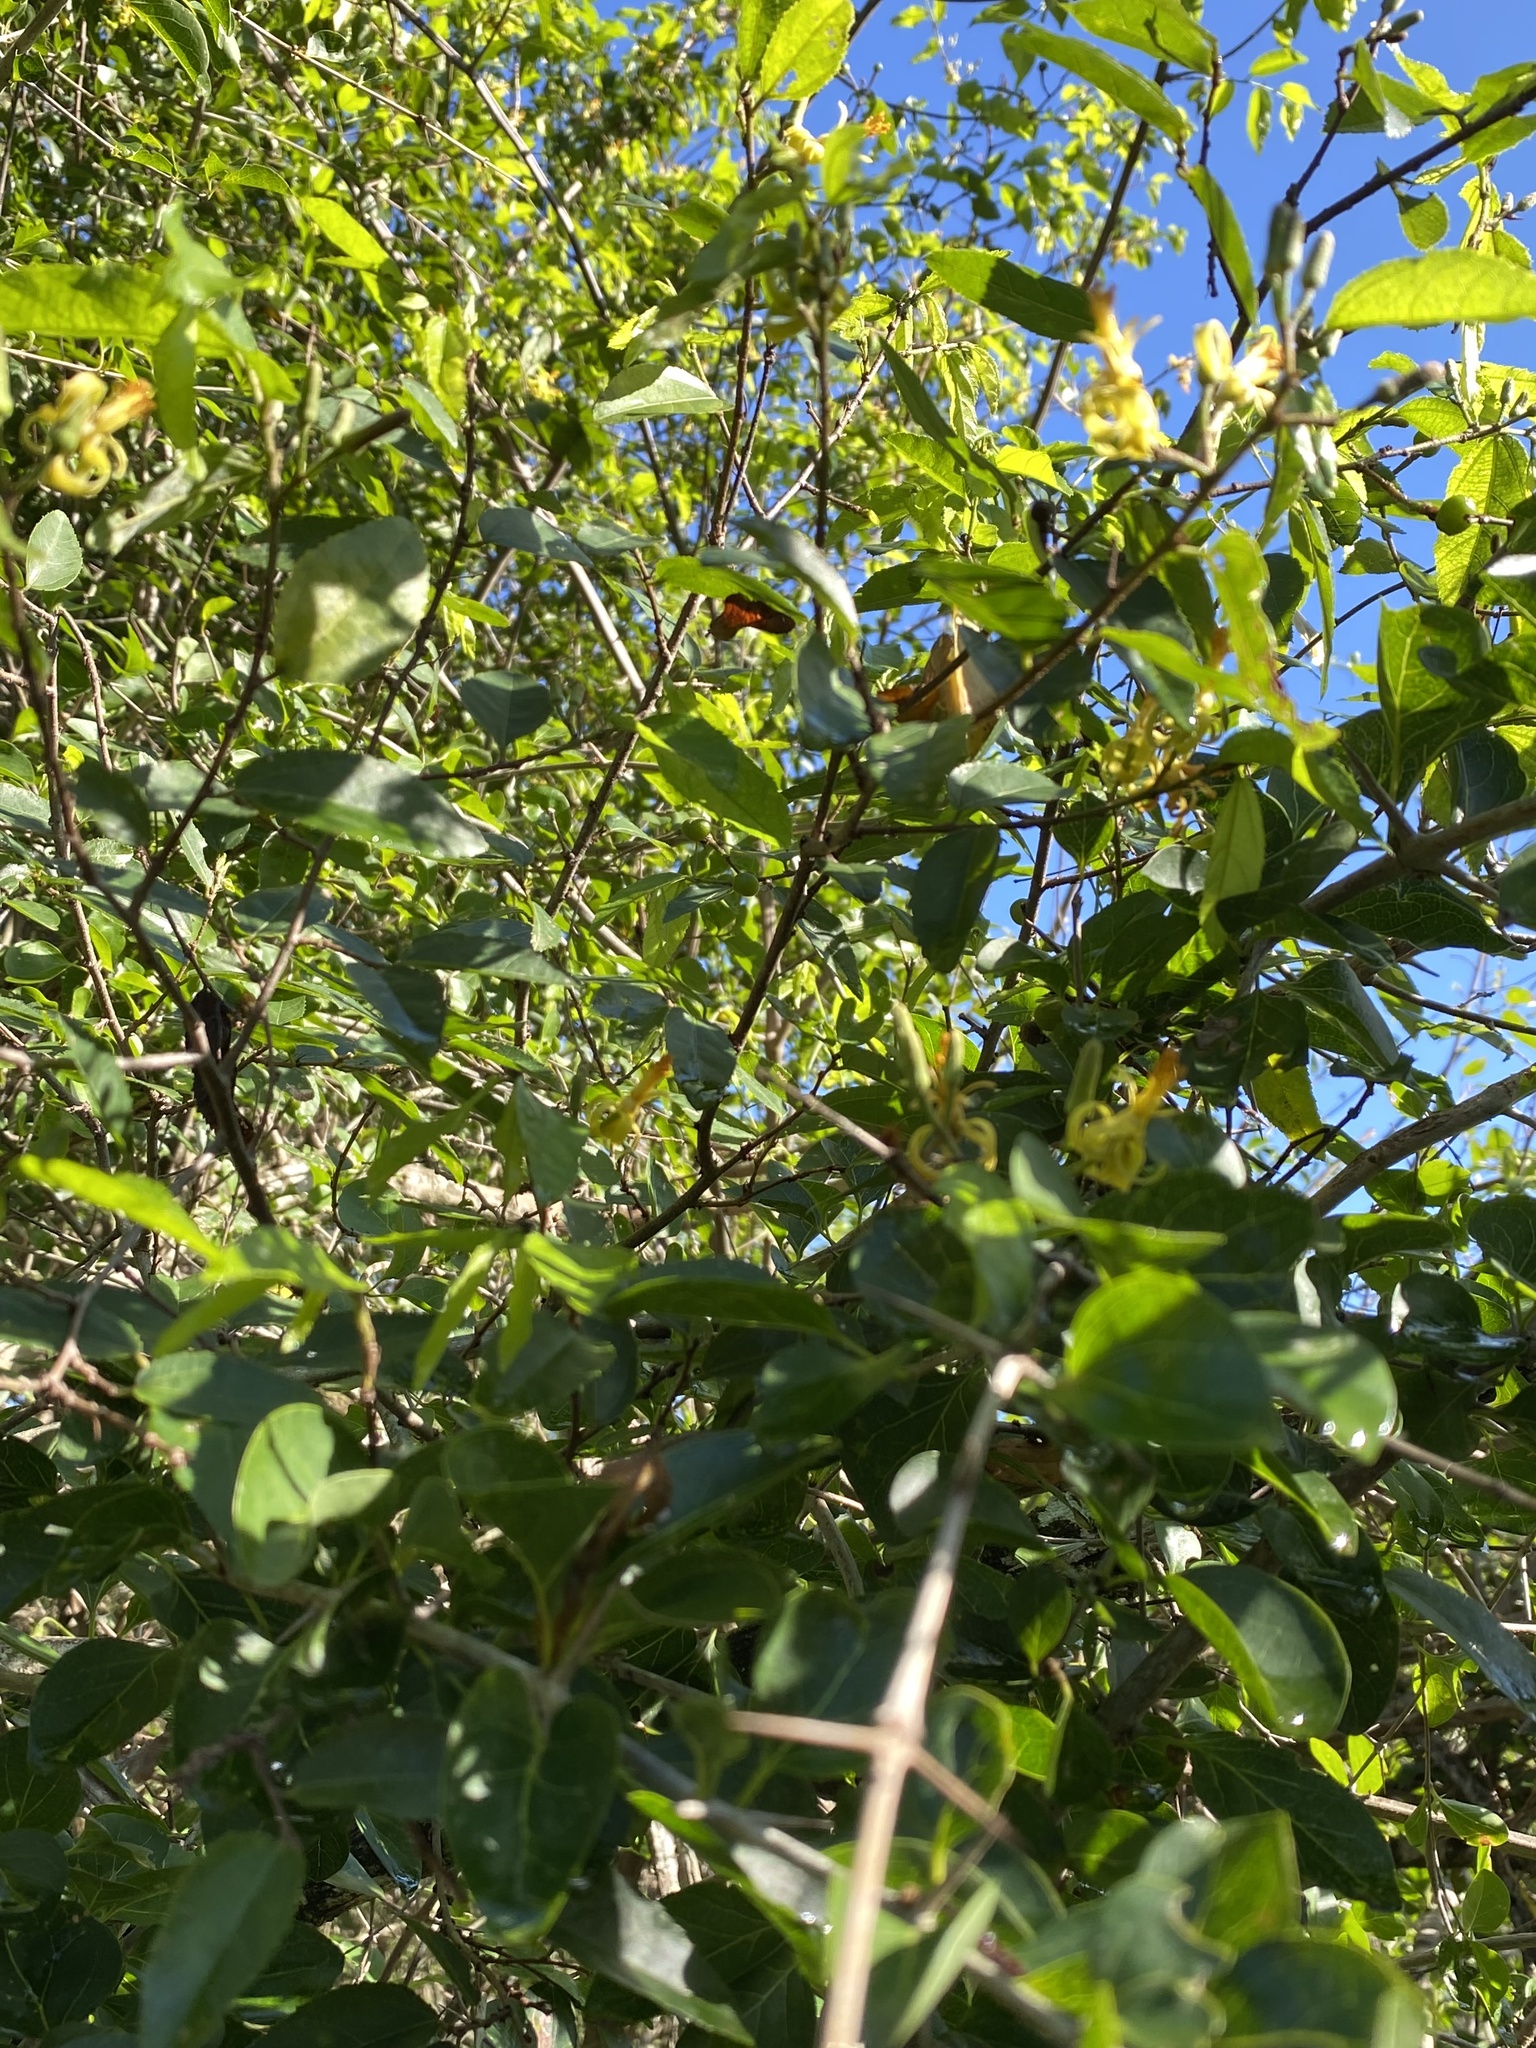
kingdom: Plantae
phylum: Tracheophyta
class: Magnoliopsida
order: Malvales
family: Malvaceae
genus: Grewia
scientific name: Grewia caffra
